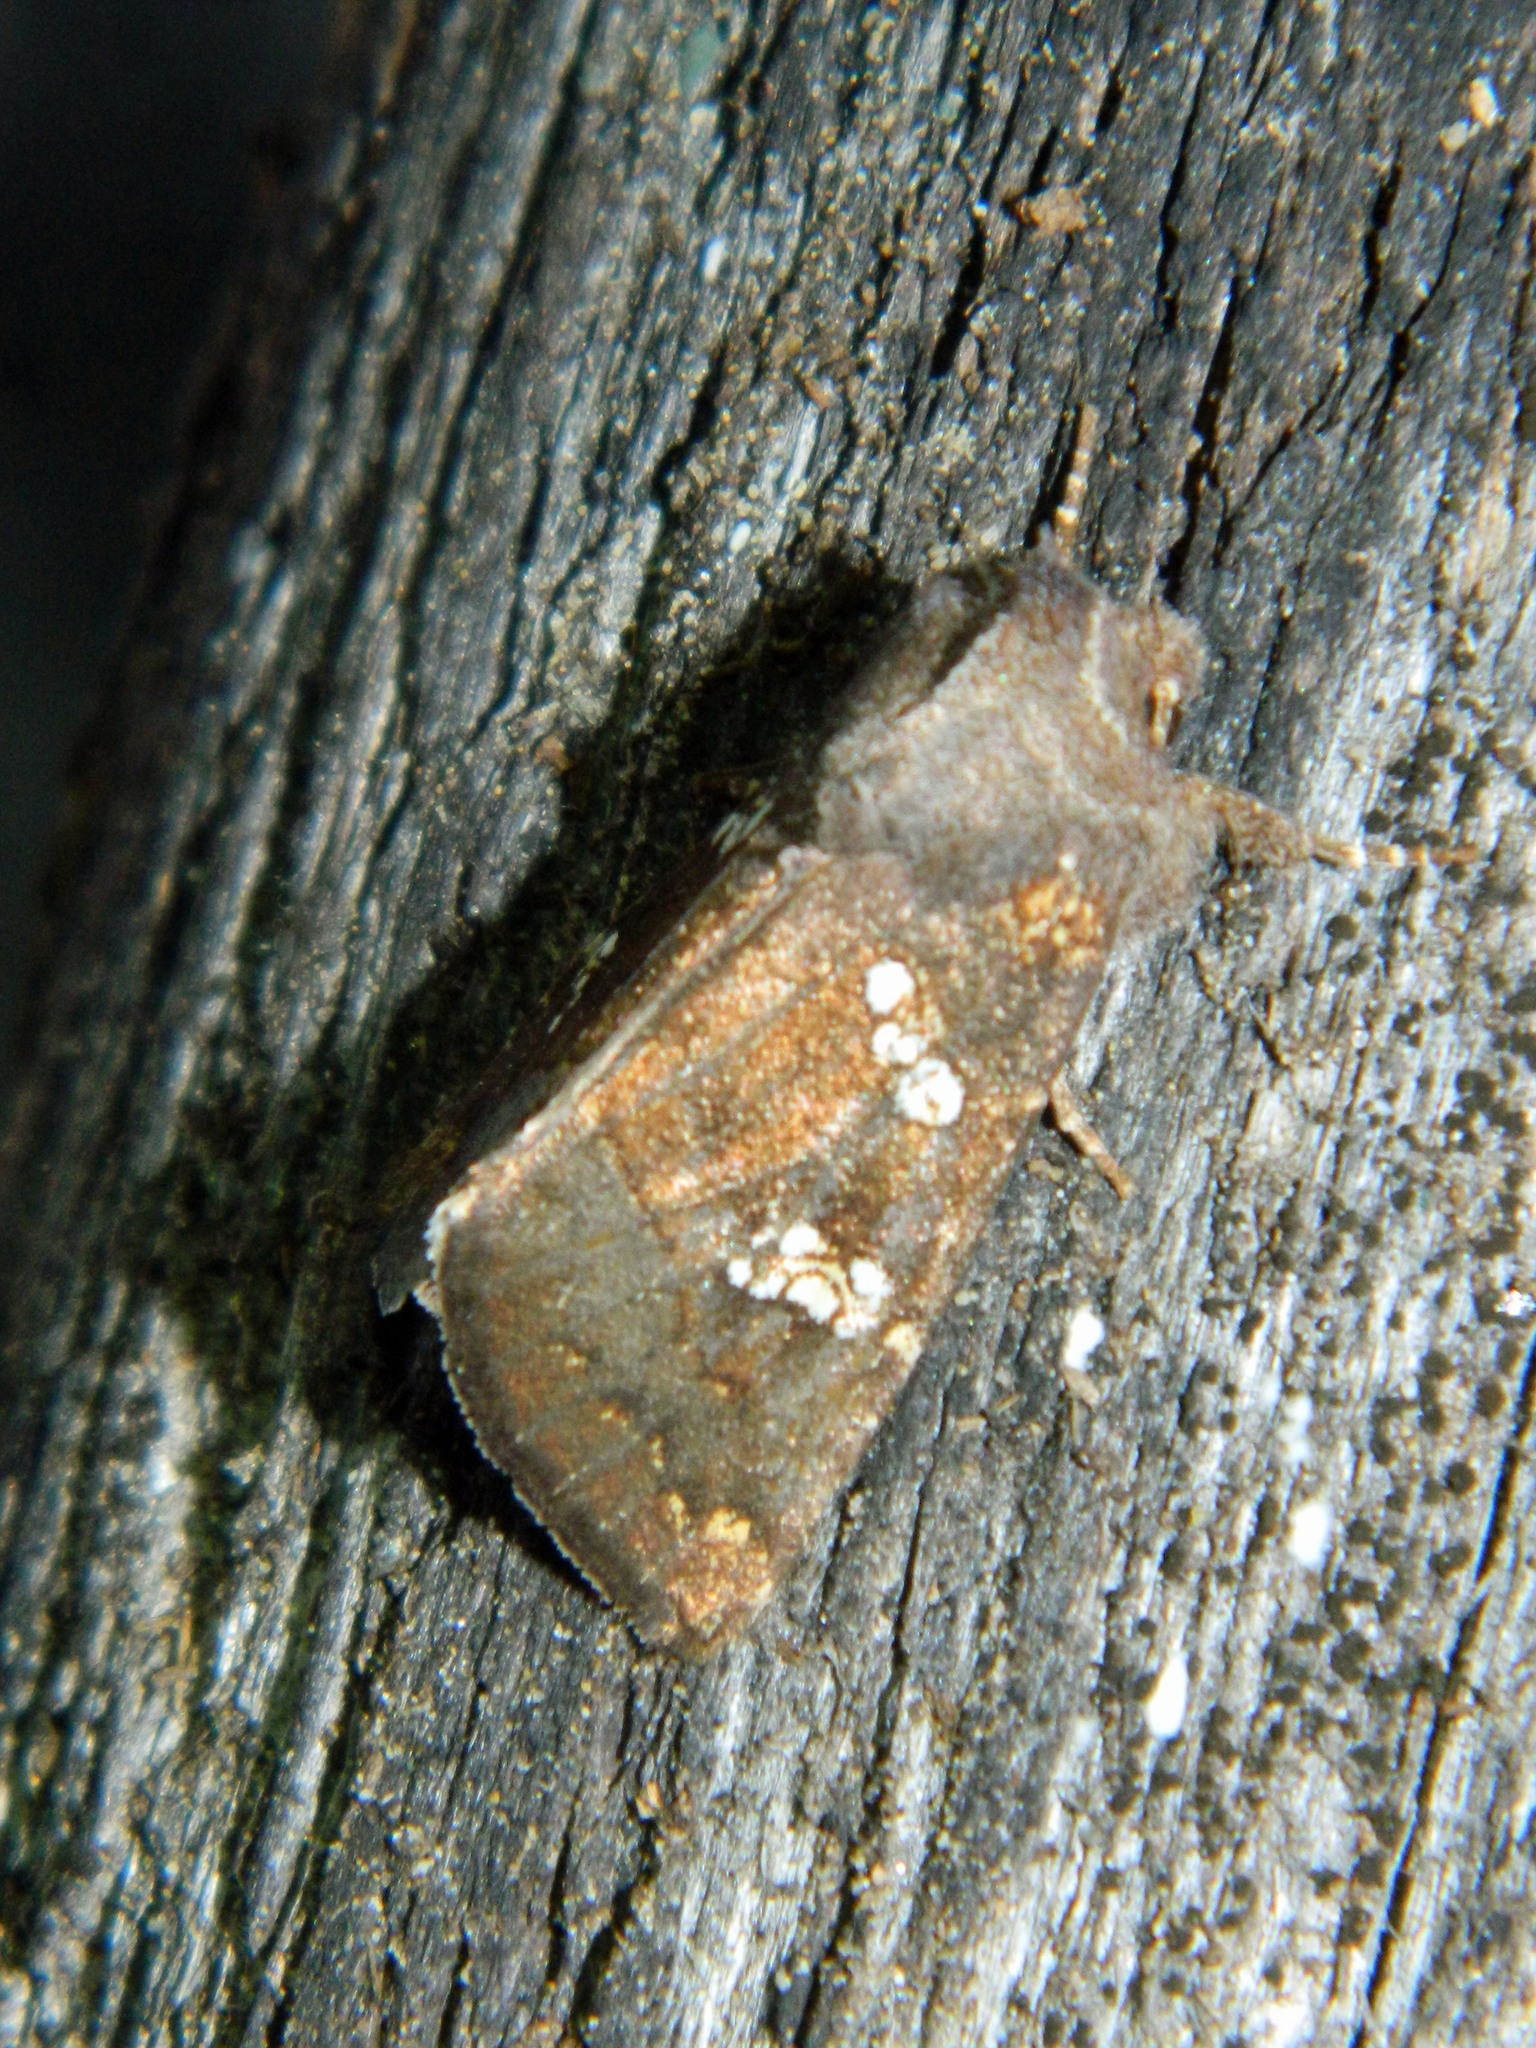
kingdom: Animalia
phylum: Arthropoda
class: Insecta
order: Lepidoptera
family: Noctuidae
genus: Papaipema
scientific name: Papaipema unimoda
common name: Meadow rue borer moth
